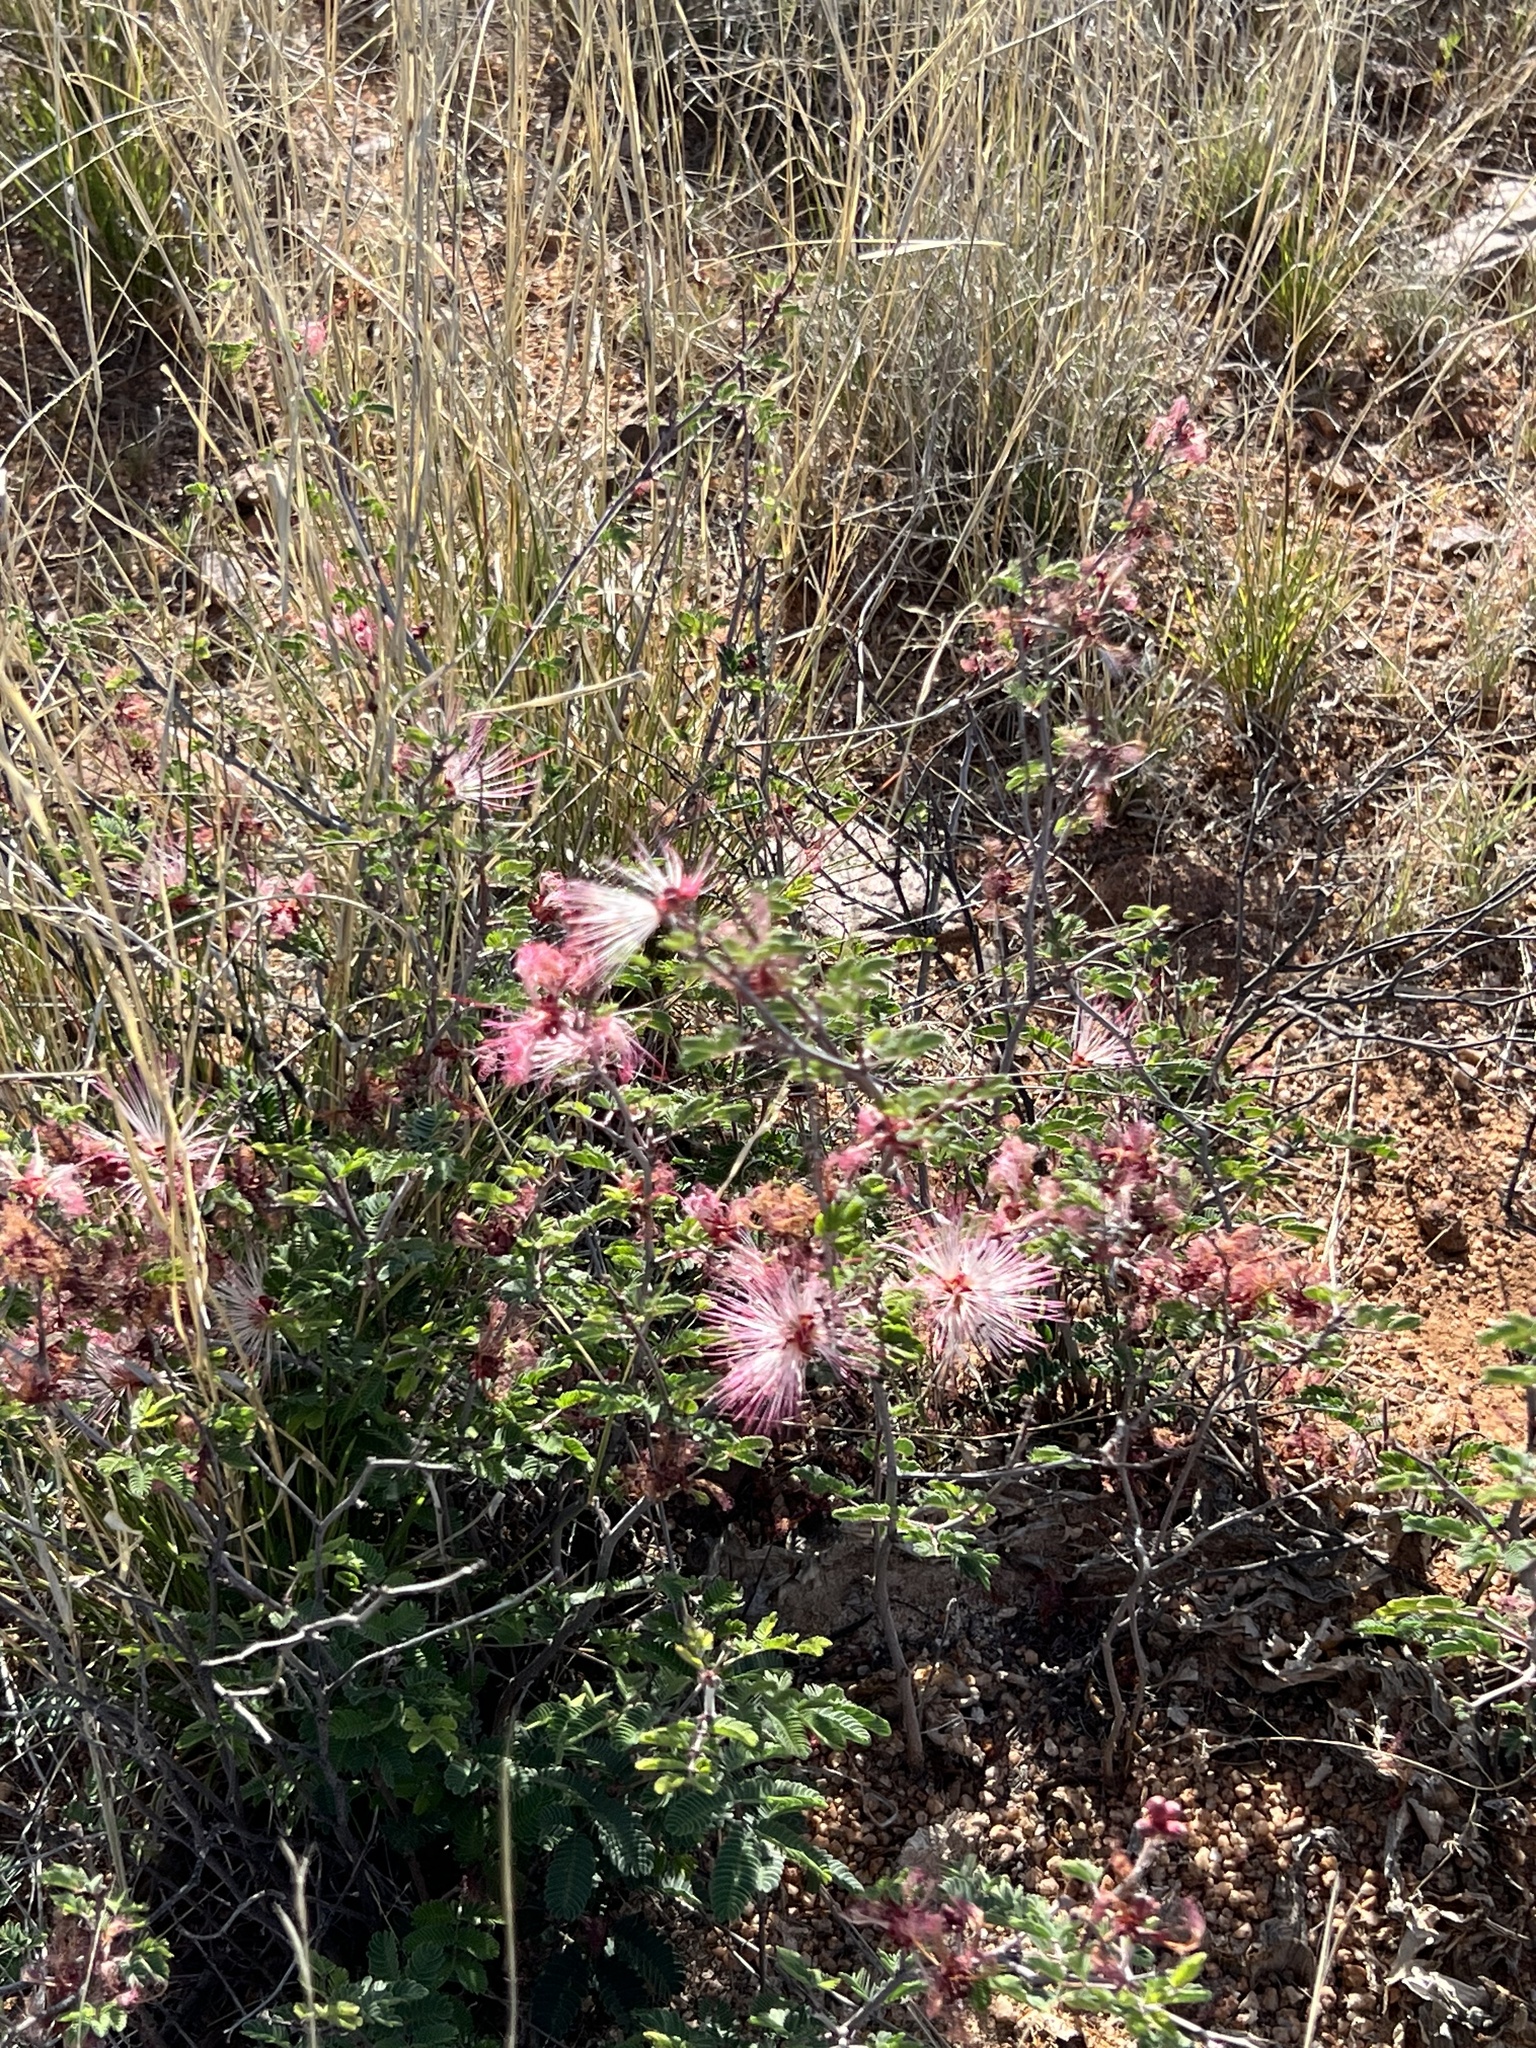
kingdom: Plantae
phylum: Tracheophyta
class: Magnoliopsida
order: Fabales
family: Fabaceae
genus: Calliandra
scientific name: Calliandra eriophylla
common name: Fairy-duster
